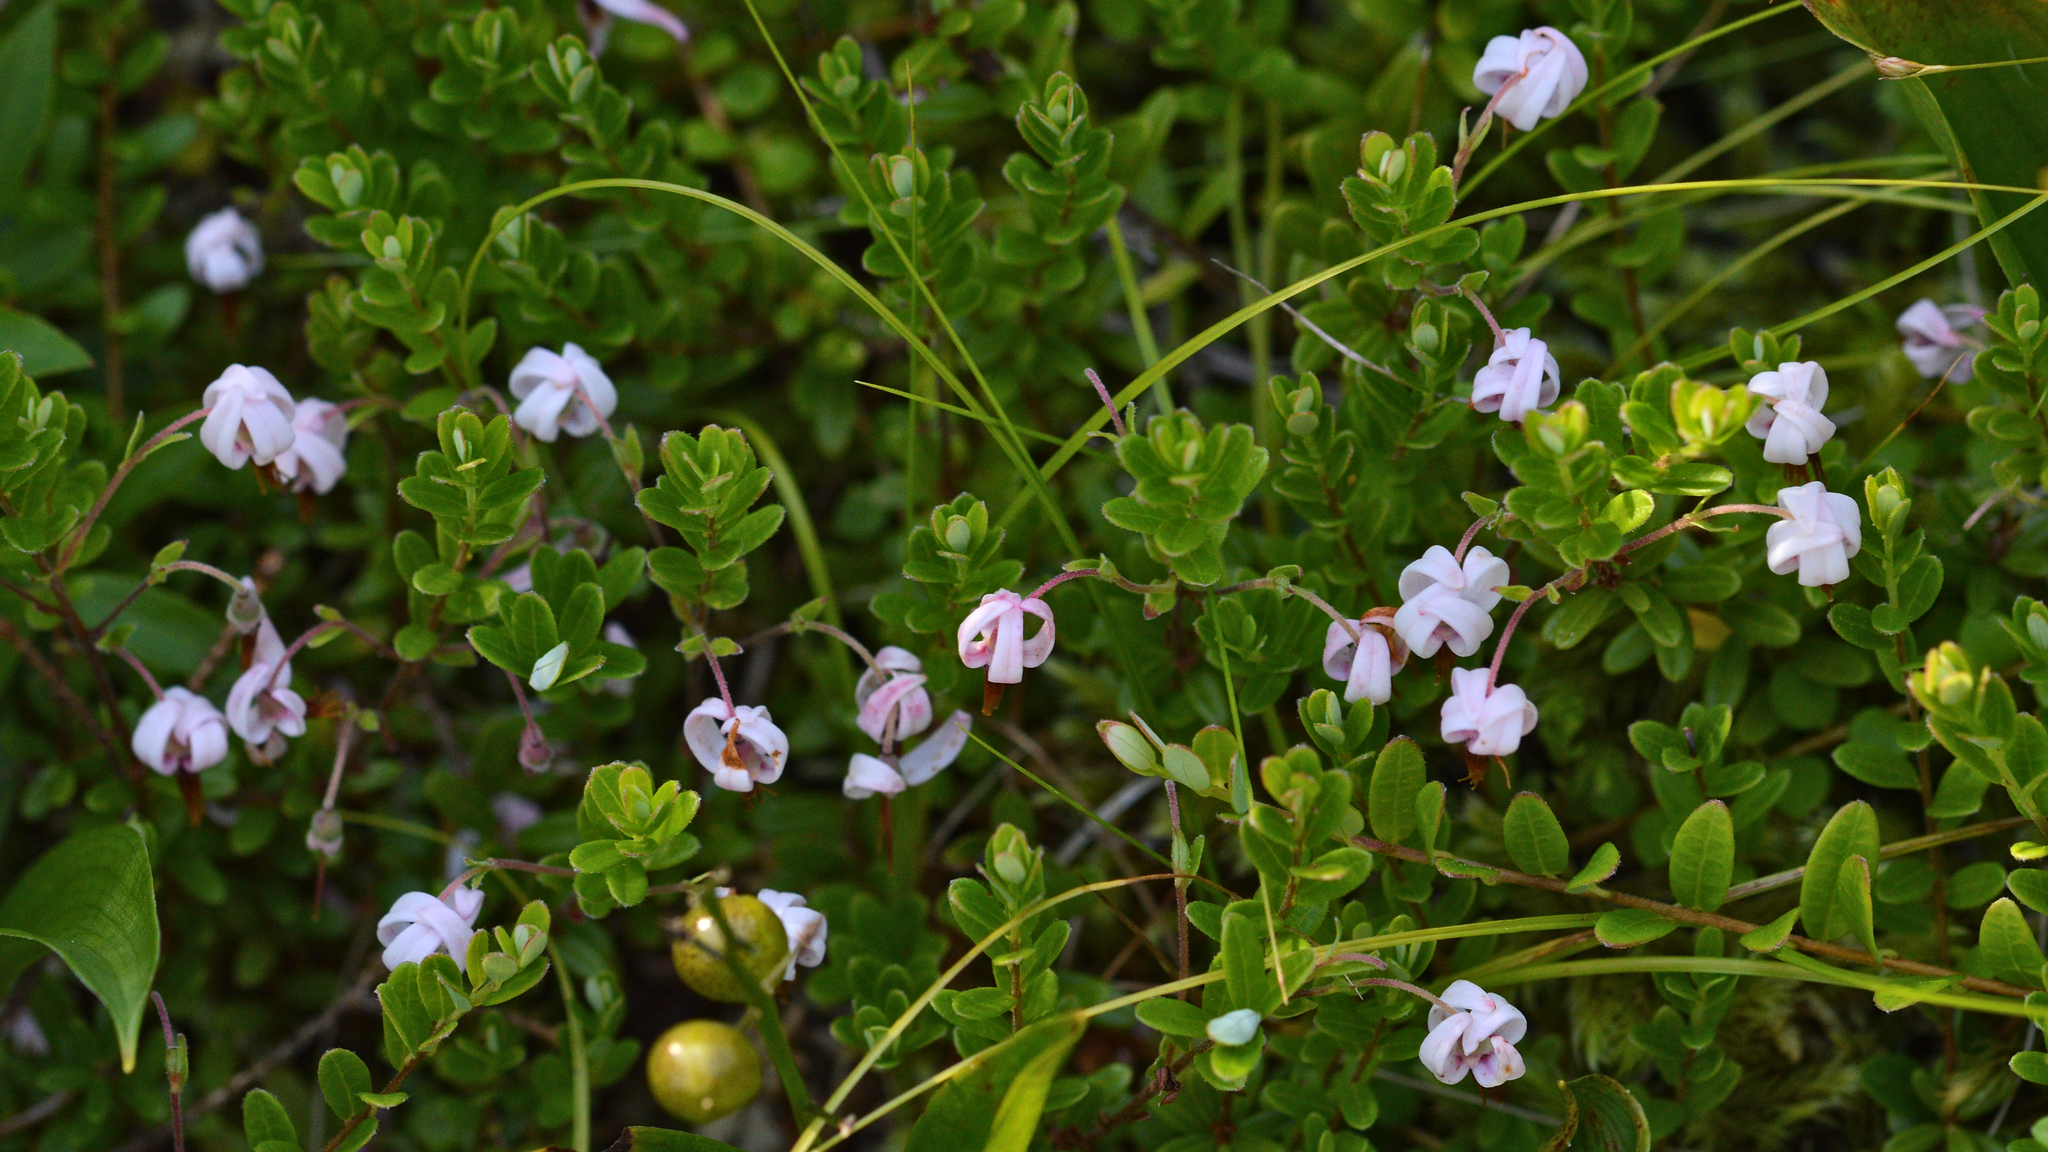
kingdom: Plantae
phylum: Tracheophyta
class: Magnoliopsida
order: Ericales
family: Ericaceae
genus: Vaccinium
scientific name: Vaccinium macrocarpon
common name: American cranberry
